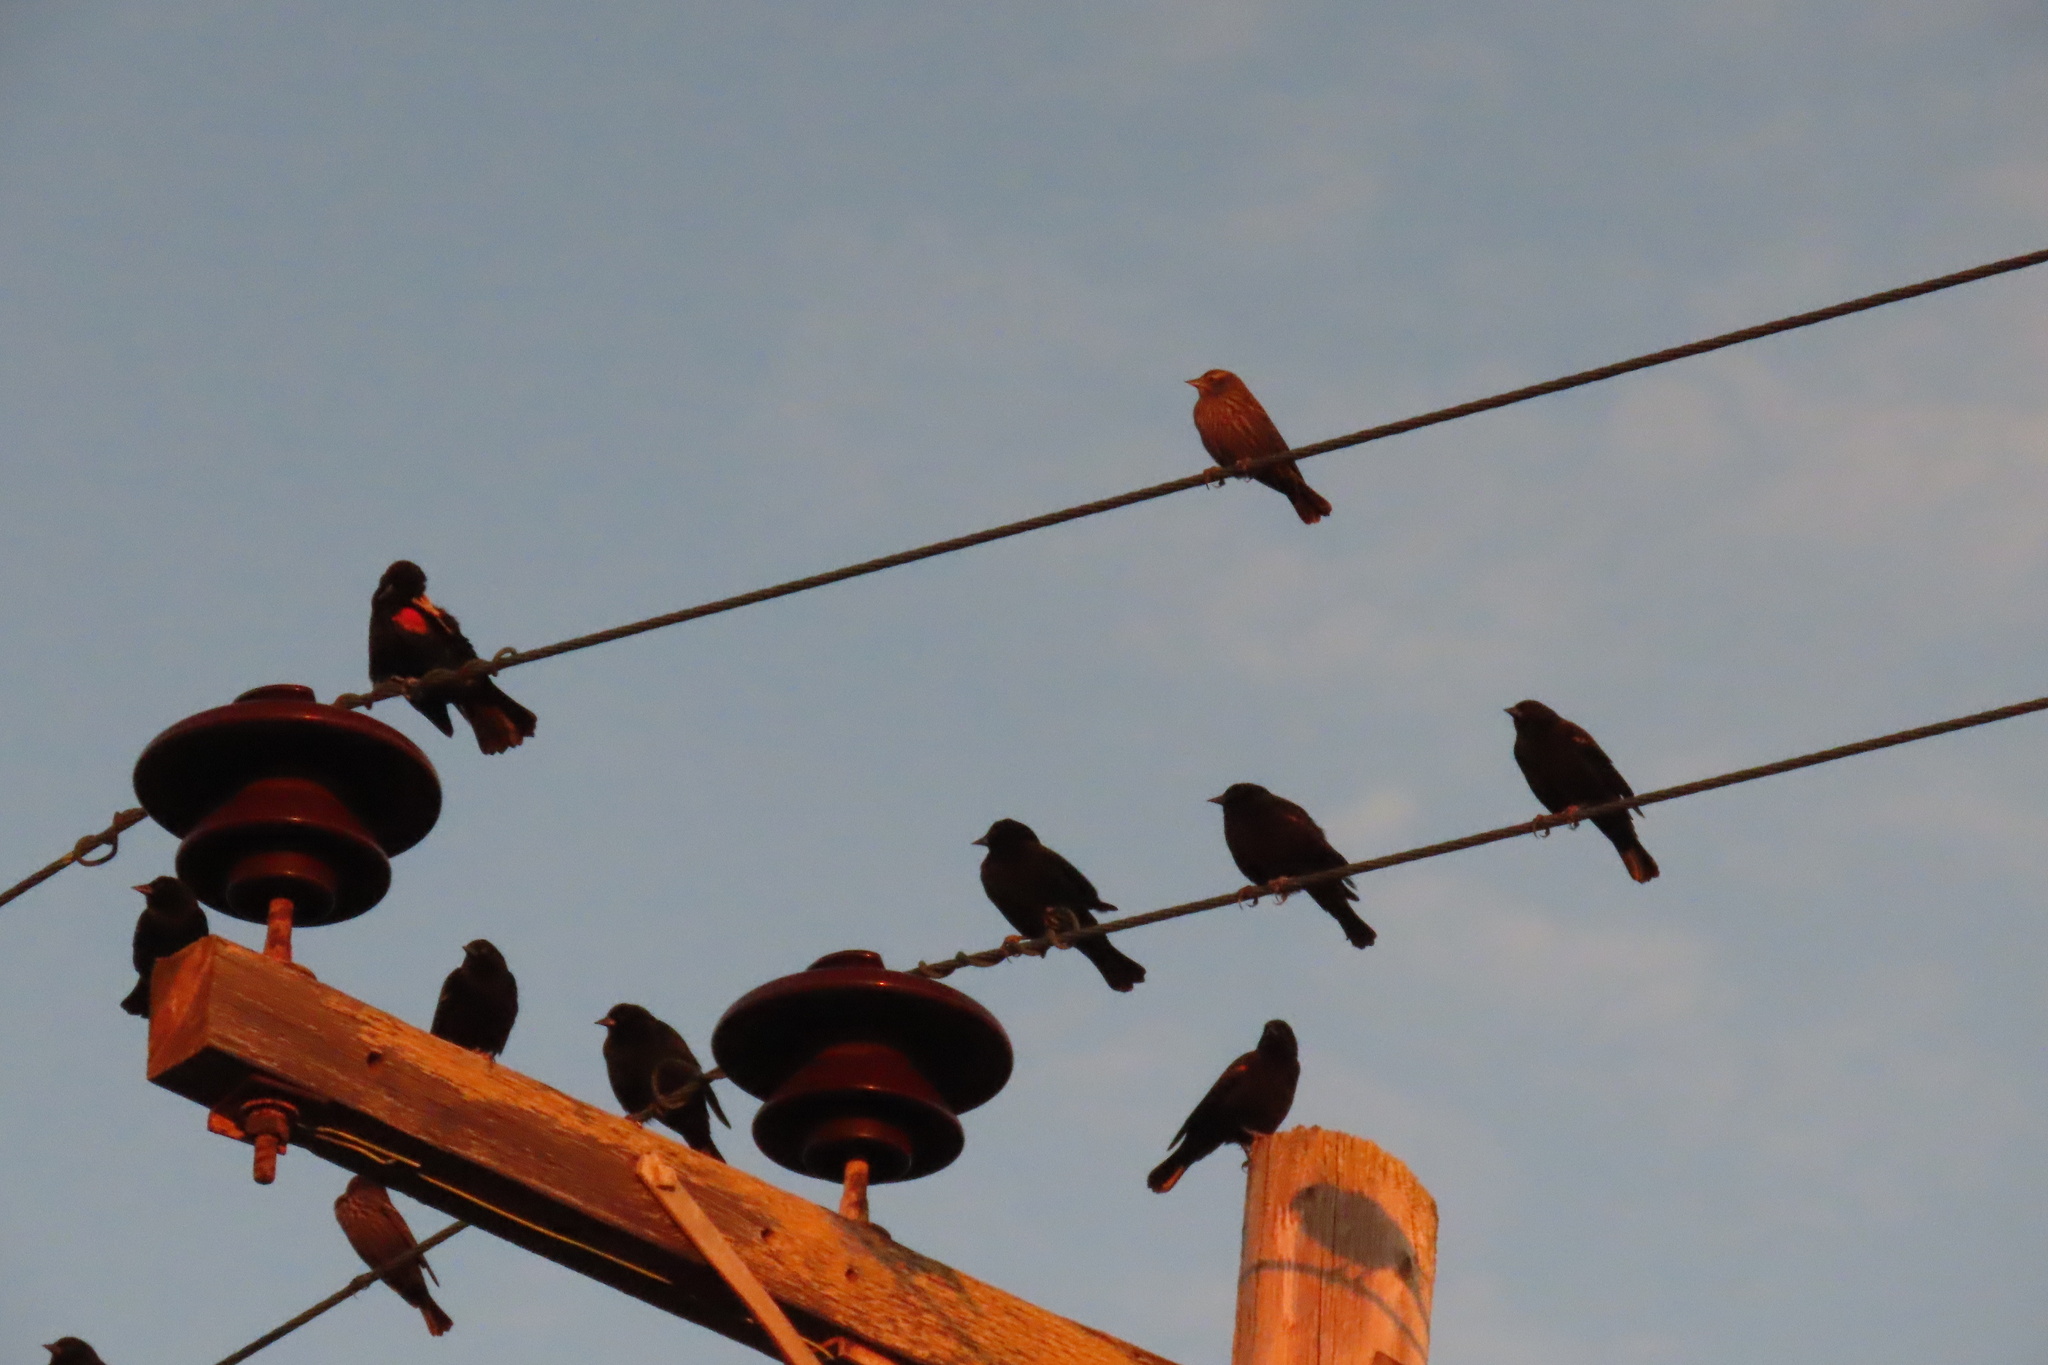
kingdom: Animalia
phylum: Chordata
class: Aves
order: Passeriformes
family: Icteridae
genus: Agelaius
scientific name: Agelaius phoeniceus
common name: Red-winged blackbird
